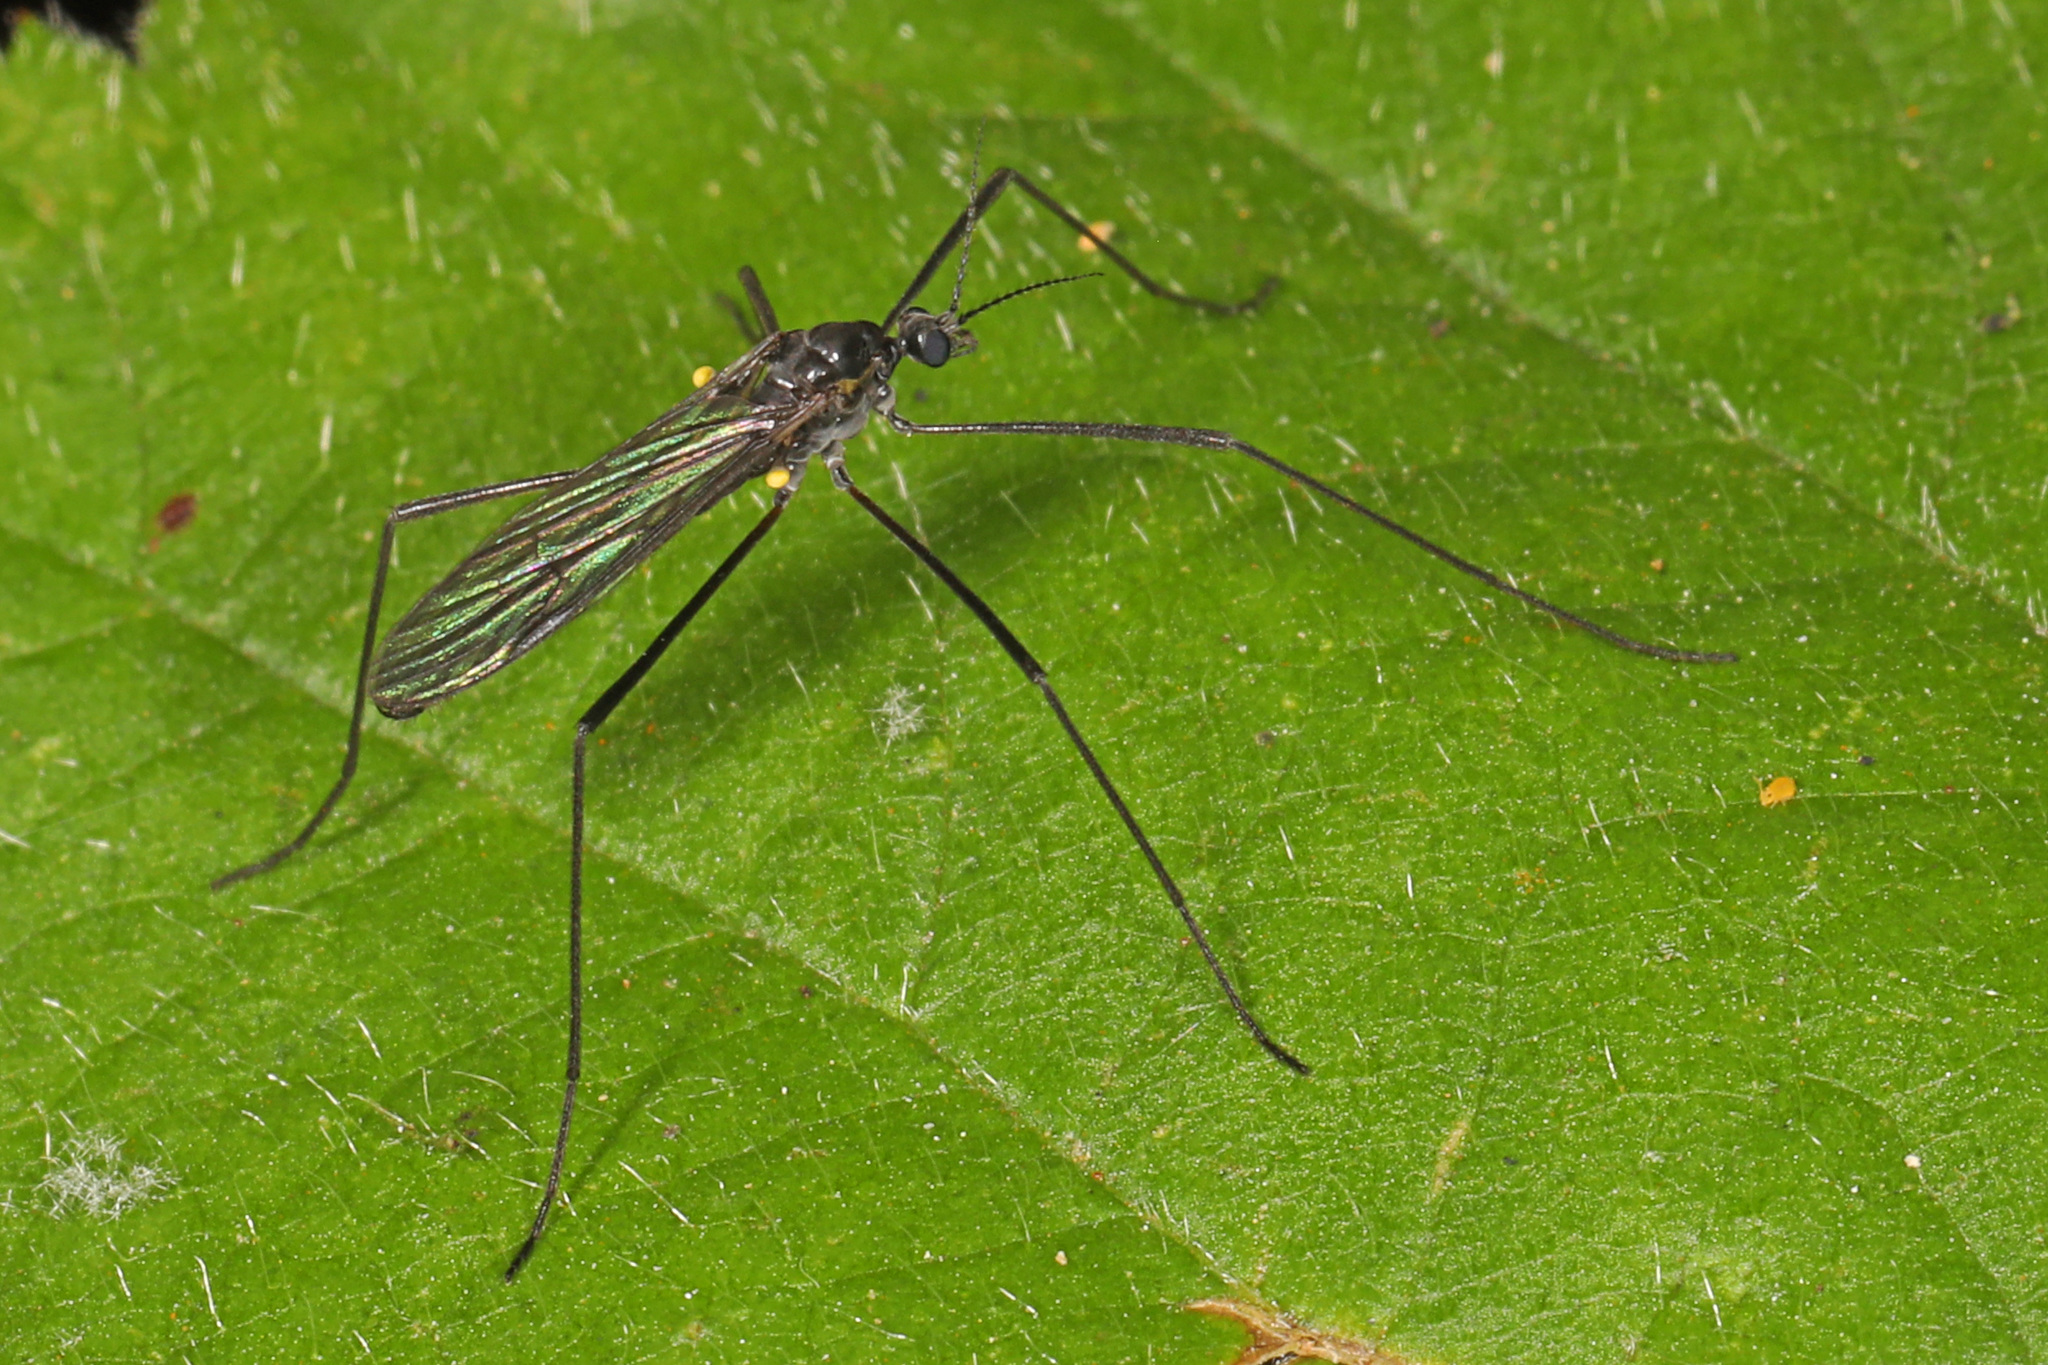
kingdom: Animalia
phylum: Arthropoda
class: Insecta
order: Diptera
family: Limoniidae
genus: Gnophomyia
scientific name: Gnophomyia tristissima
